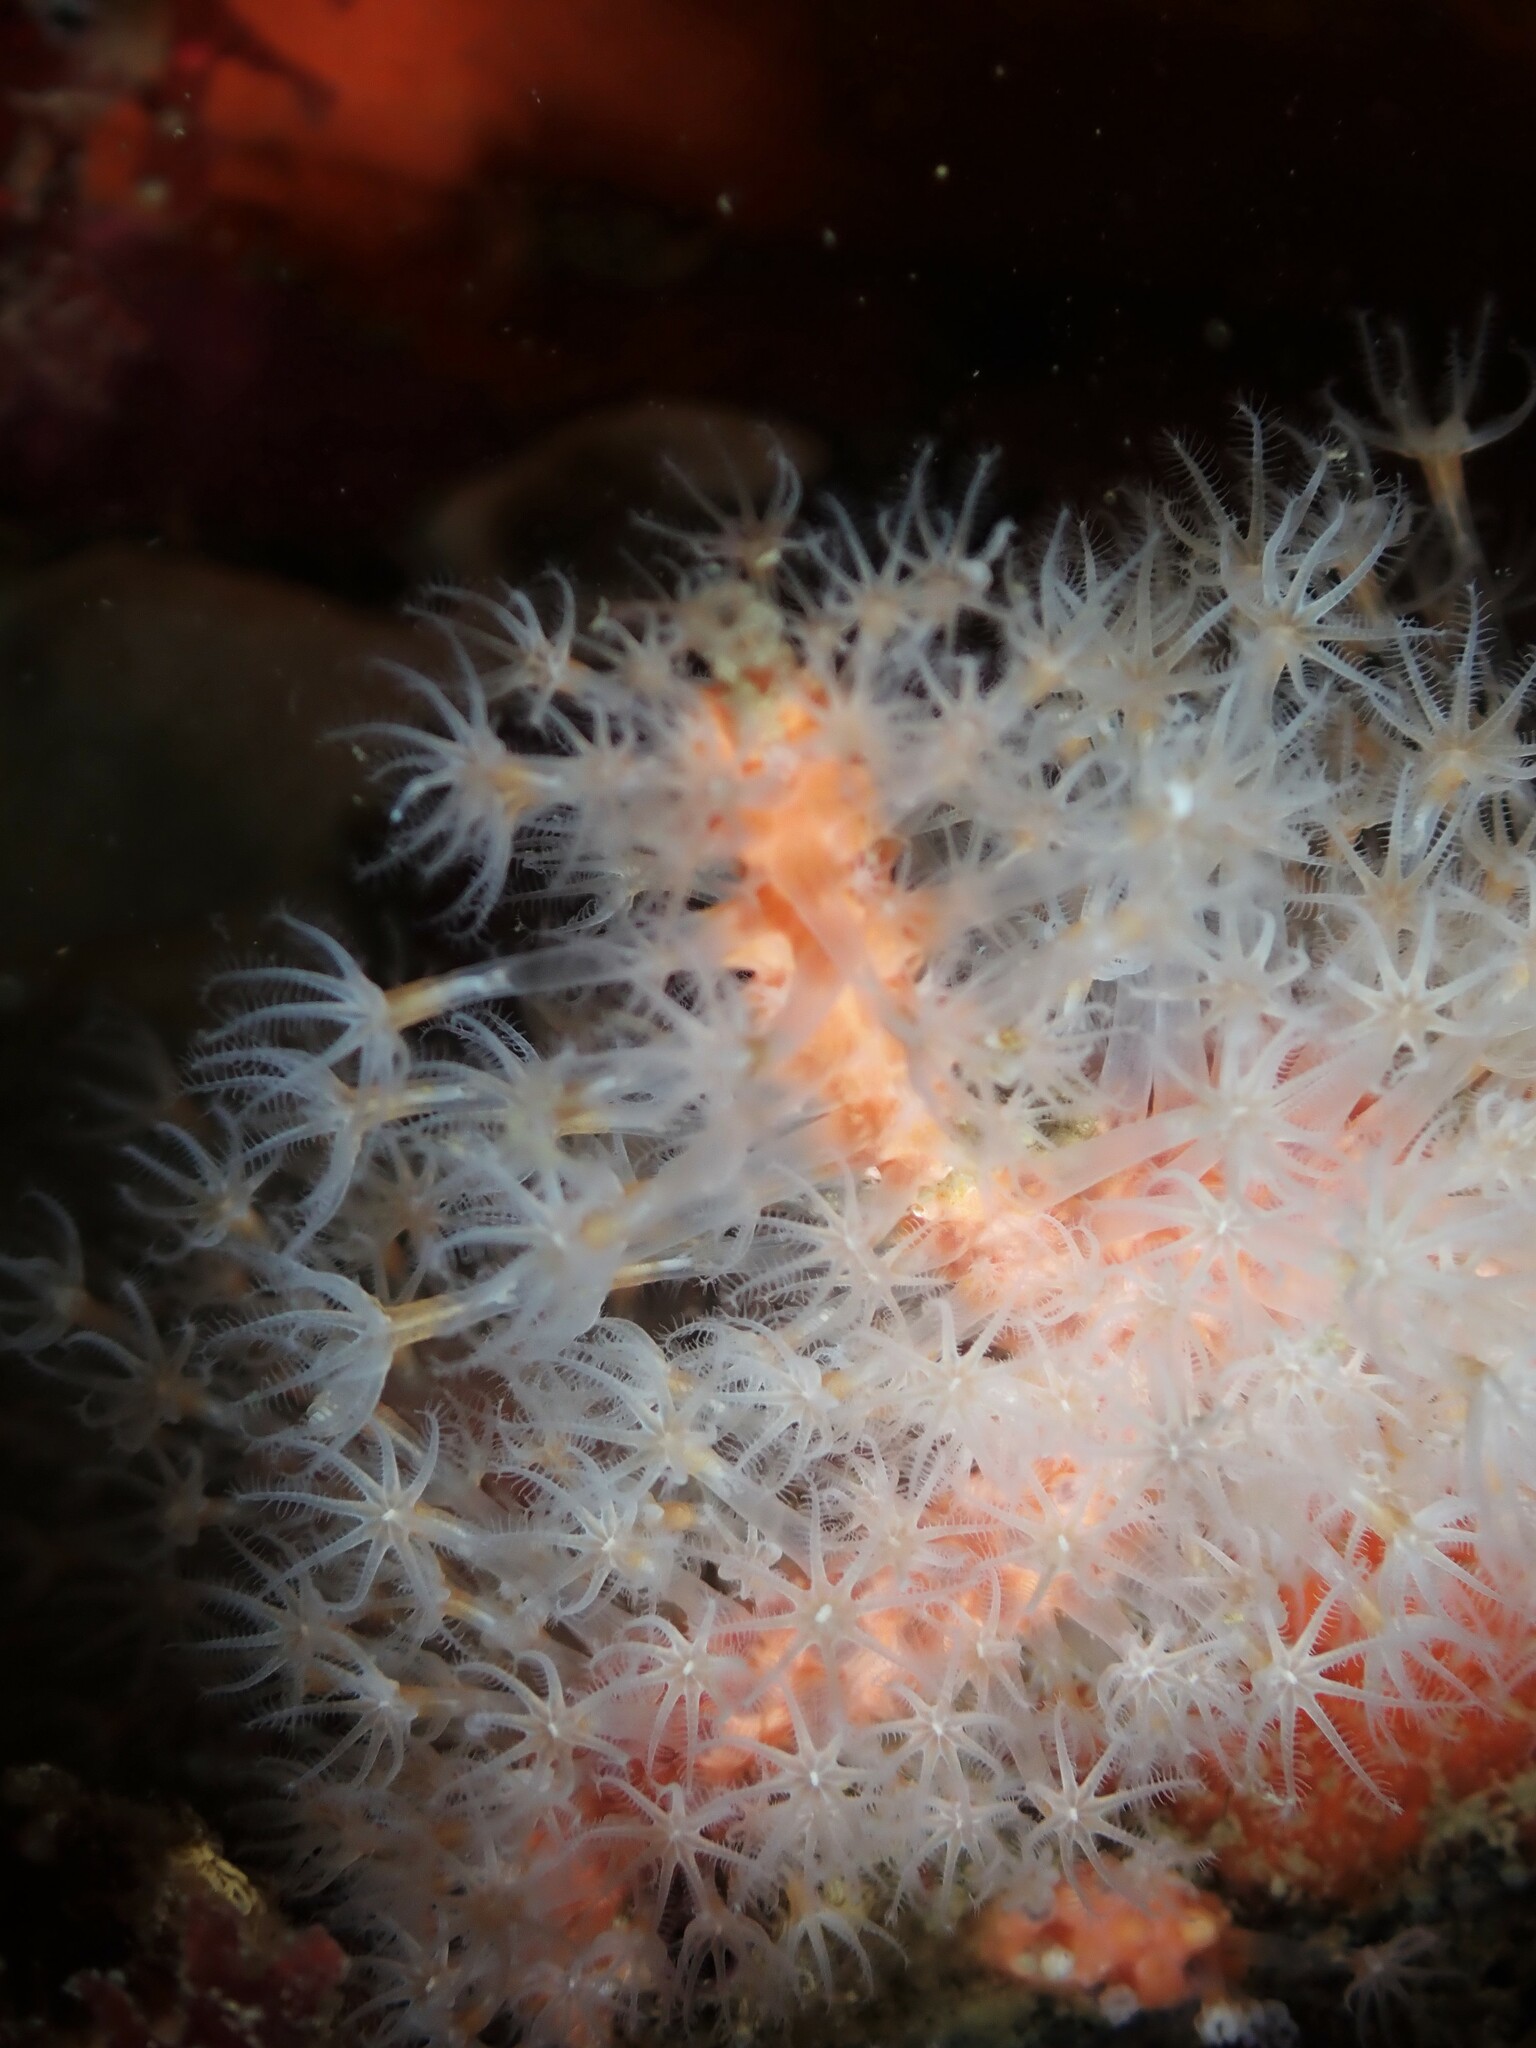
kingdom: Animalia
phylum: Cnidaria
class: Anthozoa
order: Malacalcyonacea
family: Alcyoniidae
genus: Ushanaia
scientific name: Ushanaia fervens
